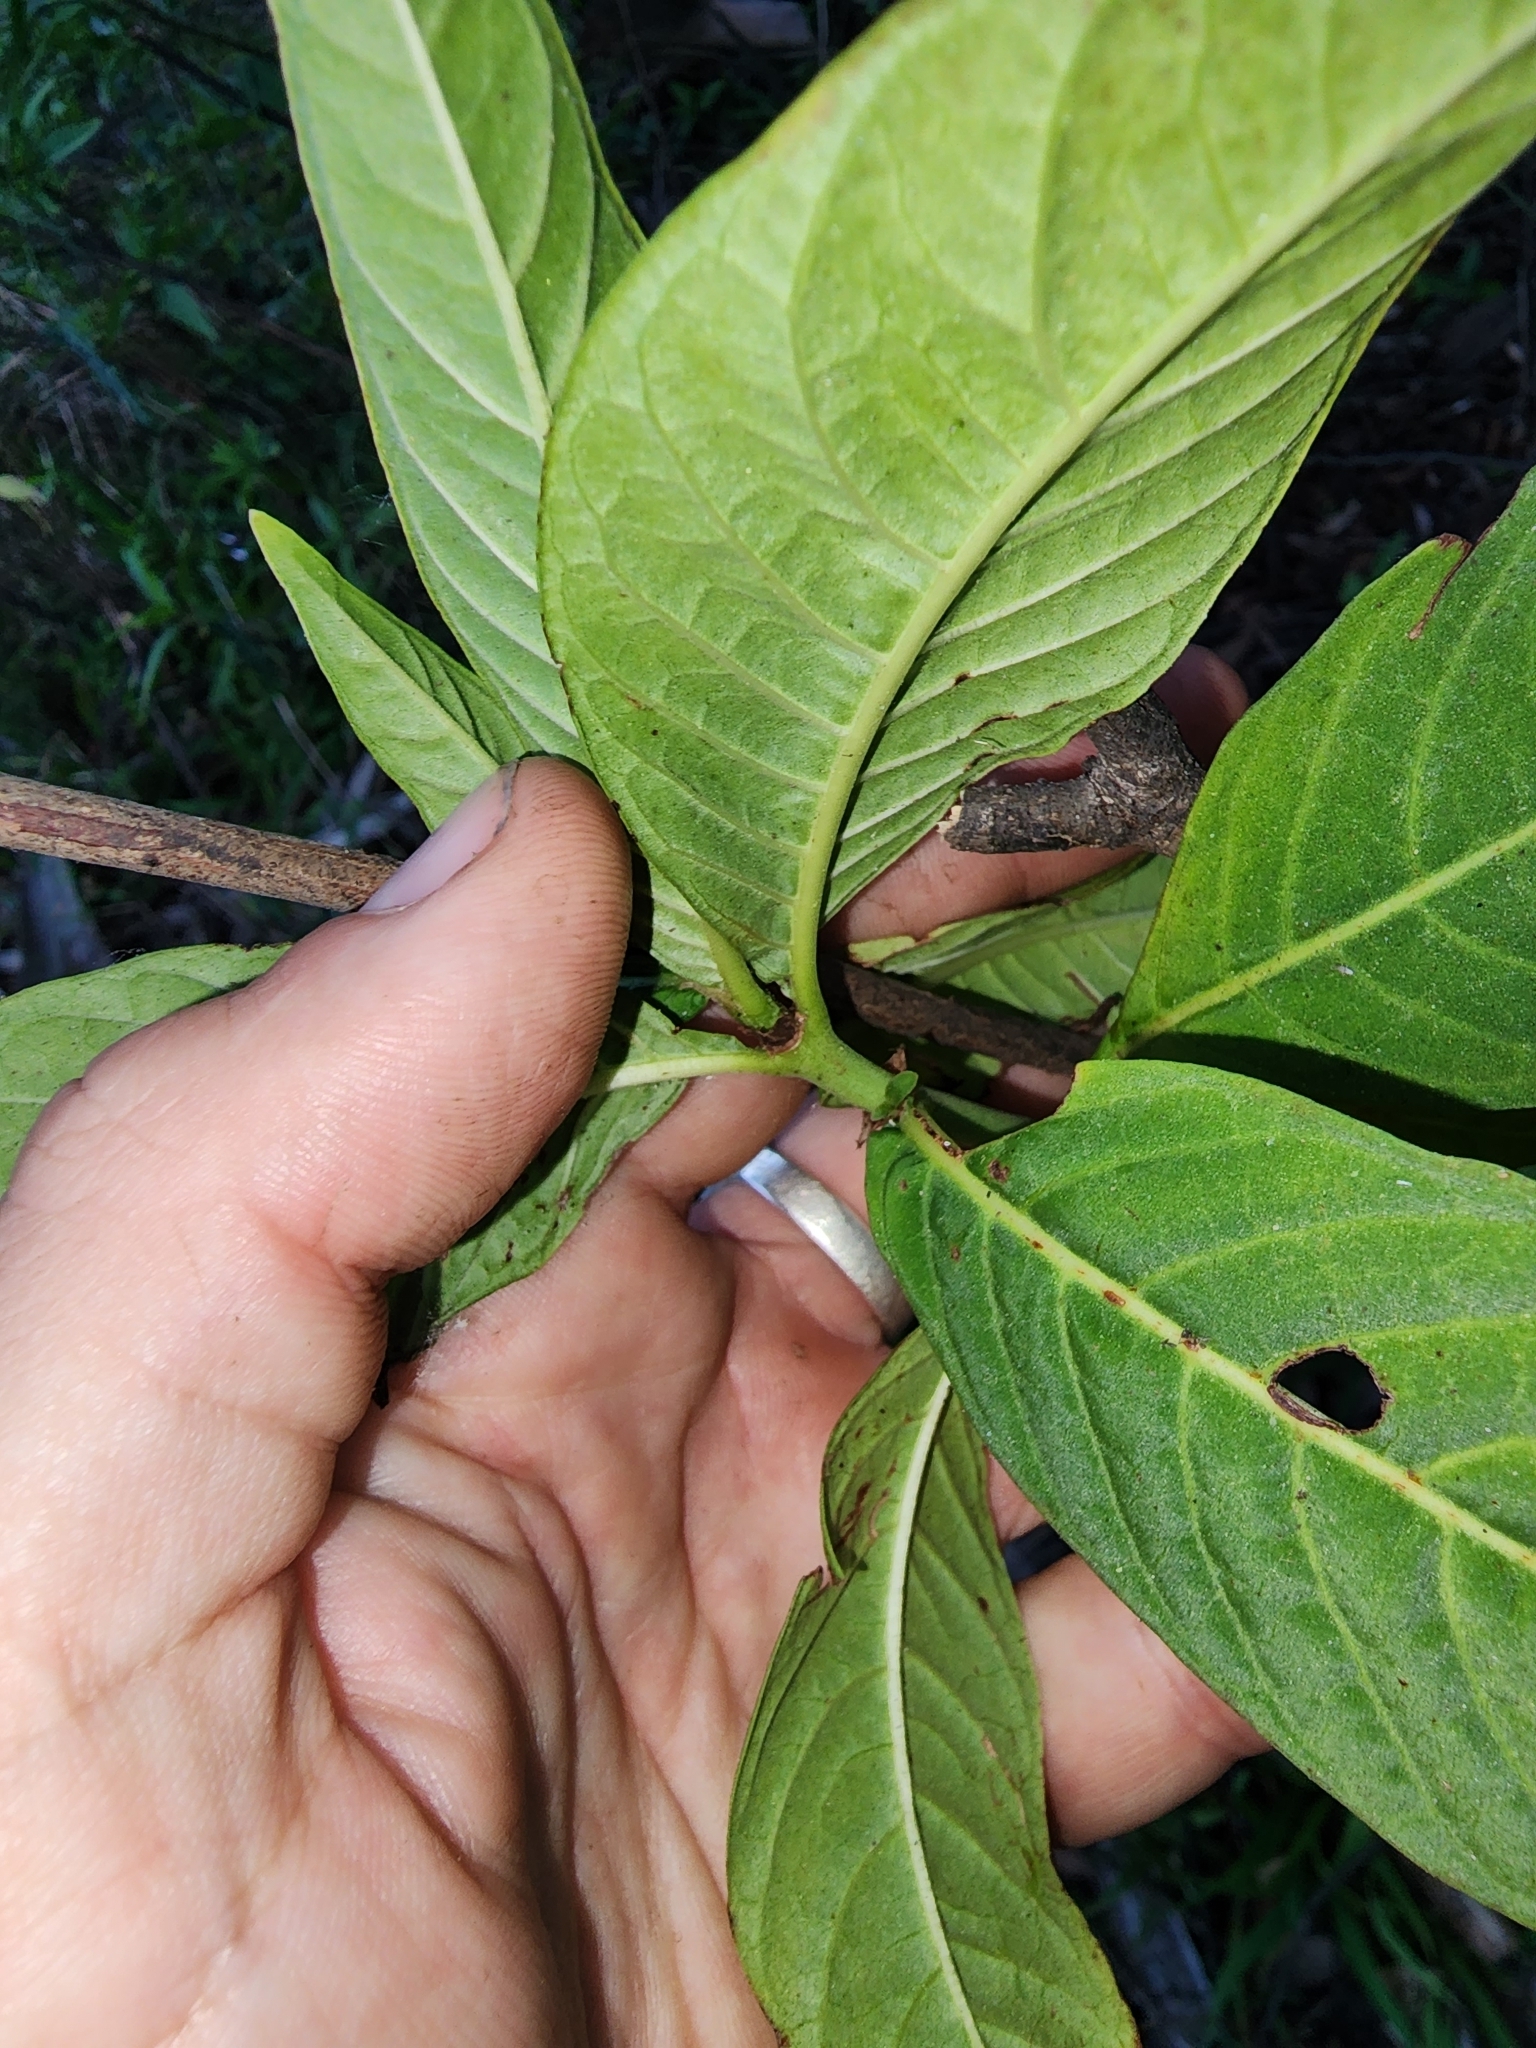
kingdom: Plantae
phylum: Tracheophyta
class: Magnoliopsida
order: Gentianales
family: Rubiaceae
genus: Psychotria
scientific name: Psychotria tenuifolia
